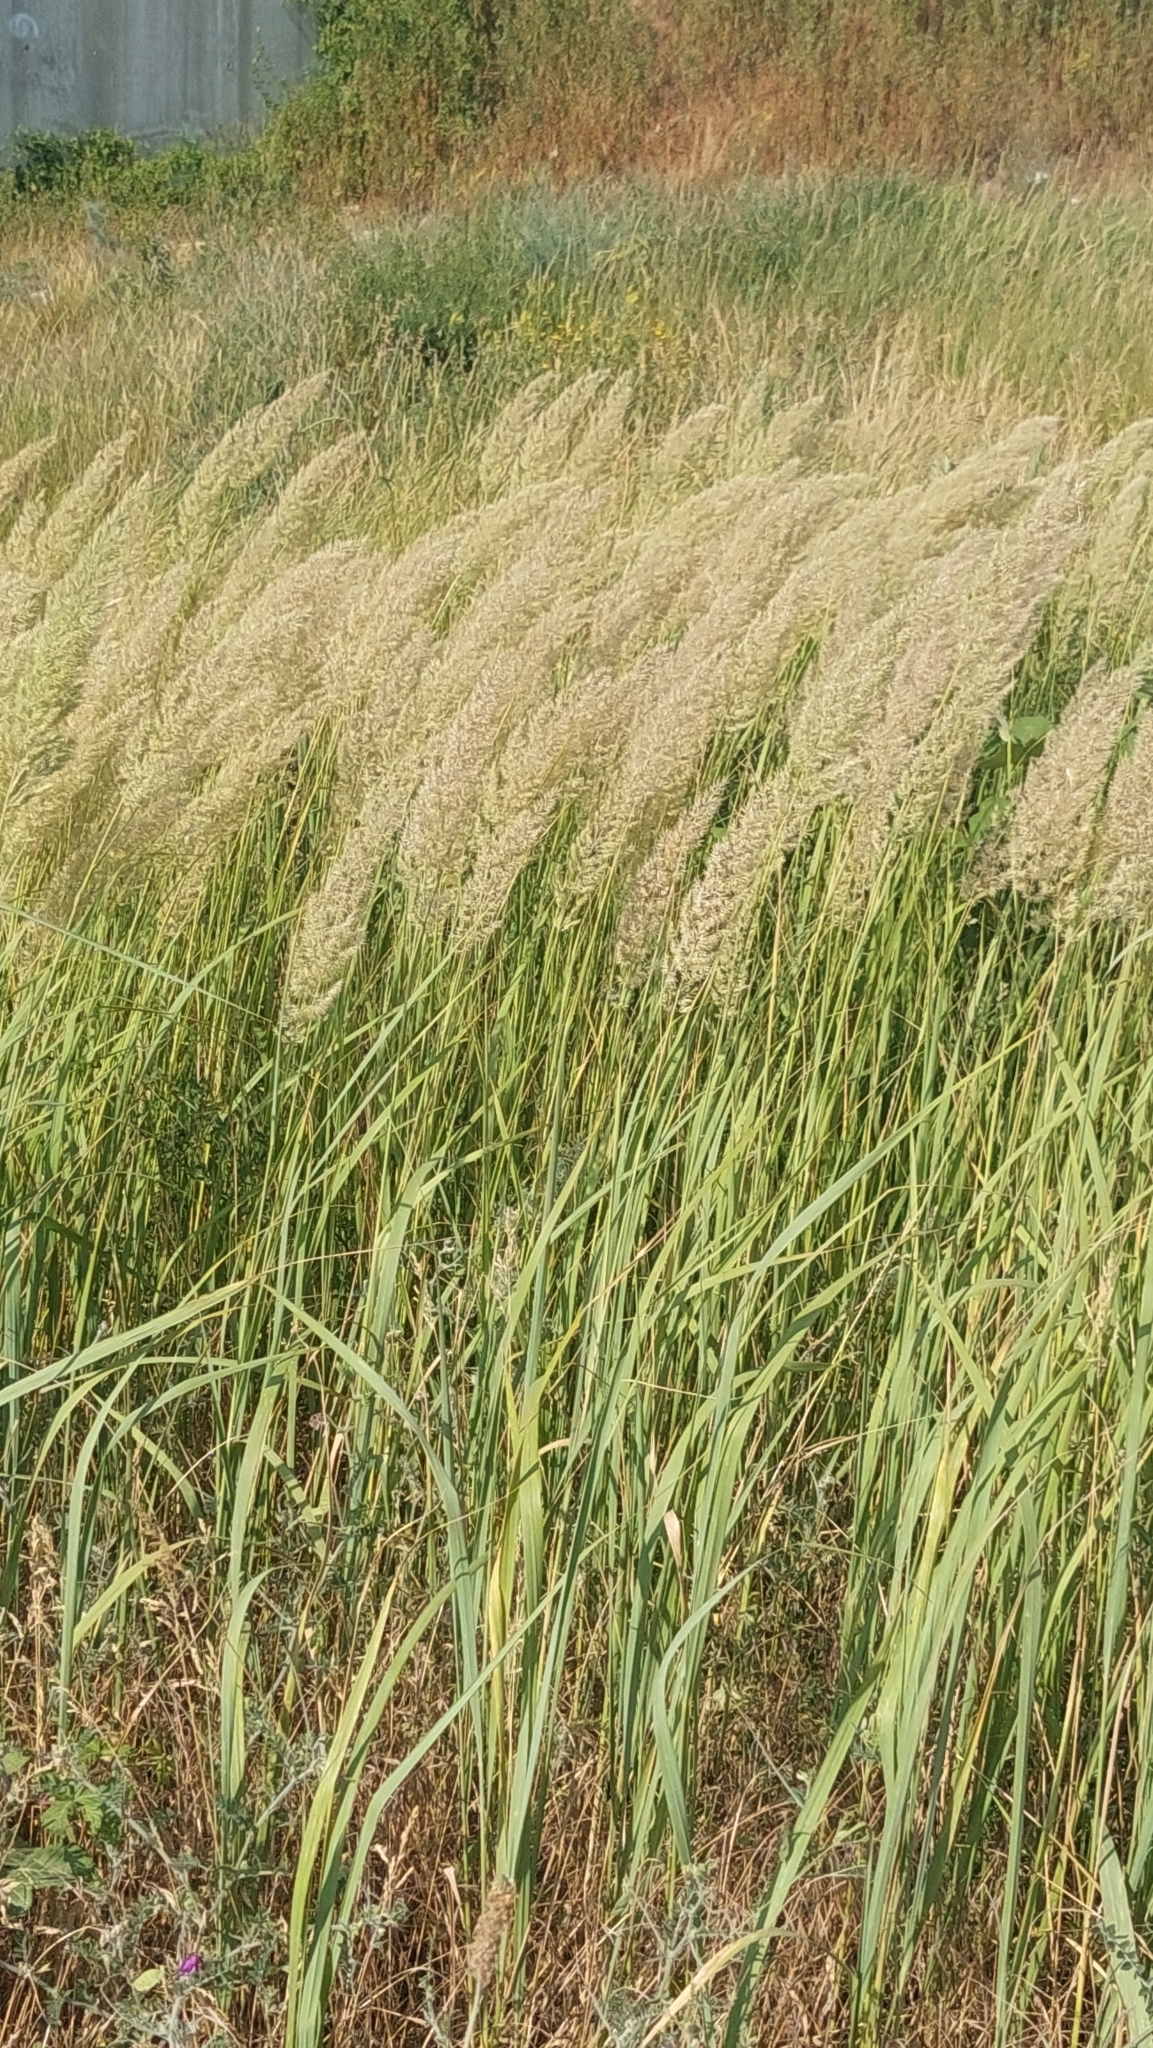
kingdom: Plantae
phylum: Tracheophyta
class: Liliopsida
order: Poales
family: Poaceae
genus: Calamagrostis
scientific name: Calamagrostis epigejos
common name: Wood small-reed
